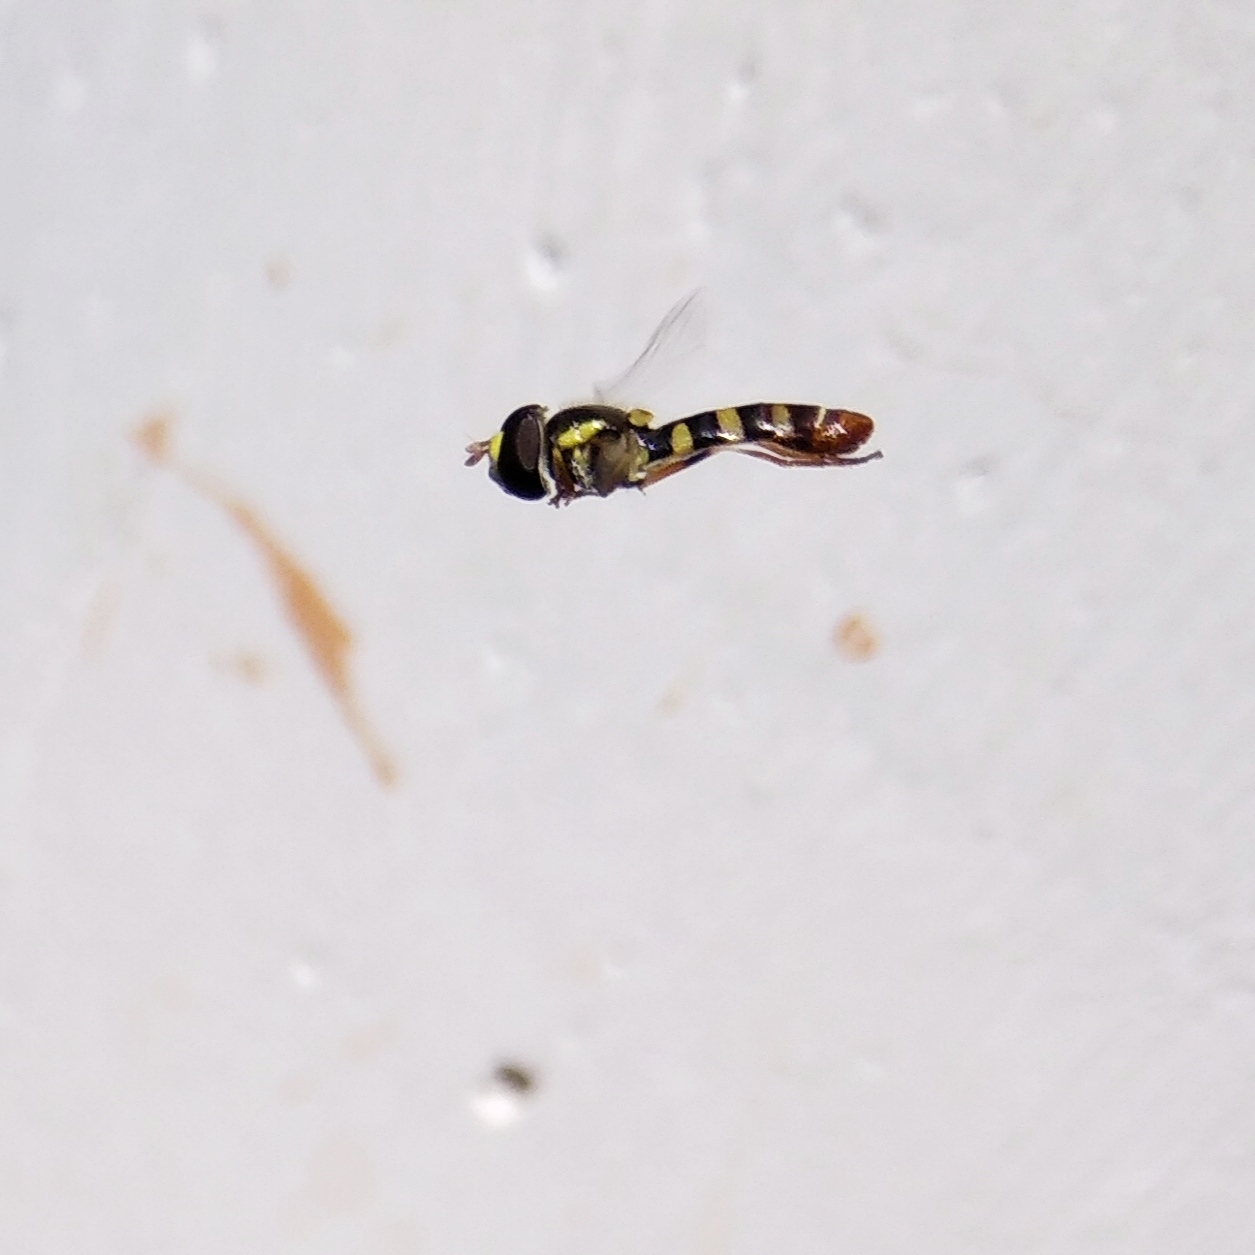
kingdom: Animalia
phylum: Arthropoda
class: Insecta
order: Diptera
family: Syrphidae
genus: Ischiodon
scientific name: Ischiodon aegyptius
